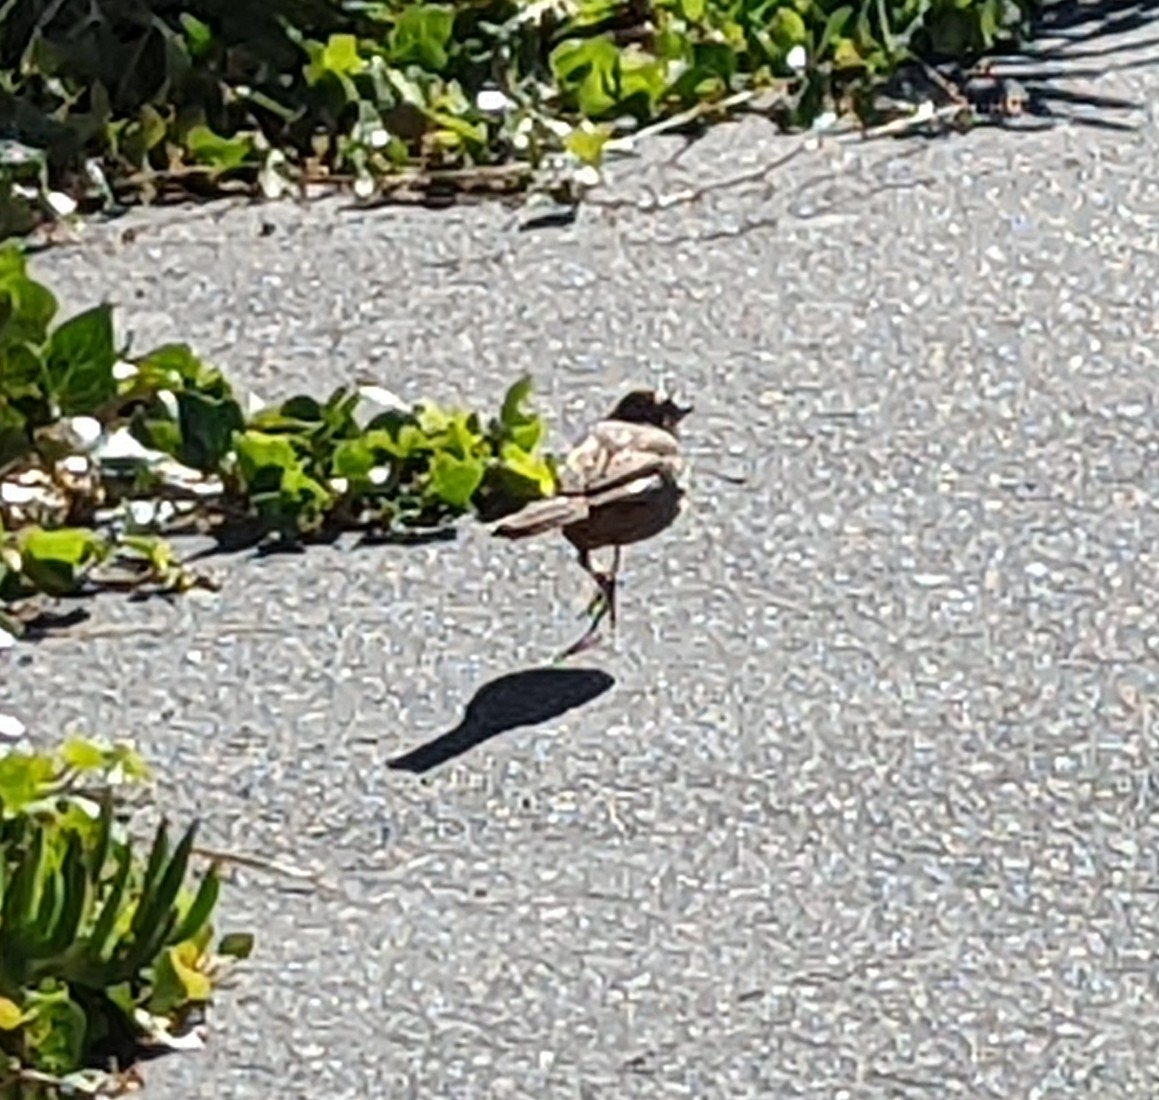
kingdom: Animalia
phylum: Chordata
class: Aves
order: Passeriformes
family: Passerellidae
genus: Melozone
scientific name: Melozone crissalis
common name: California towhee
